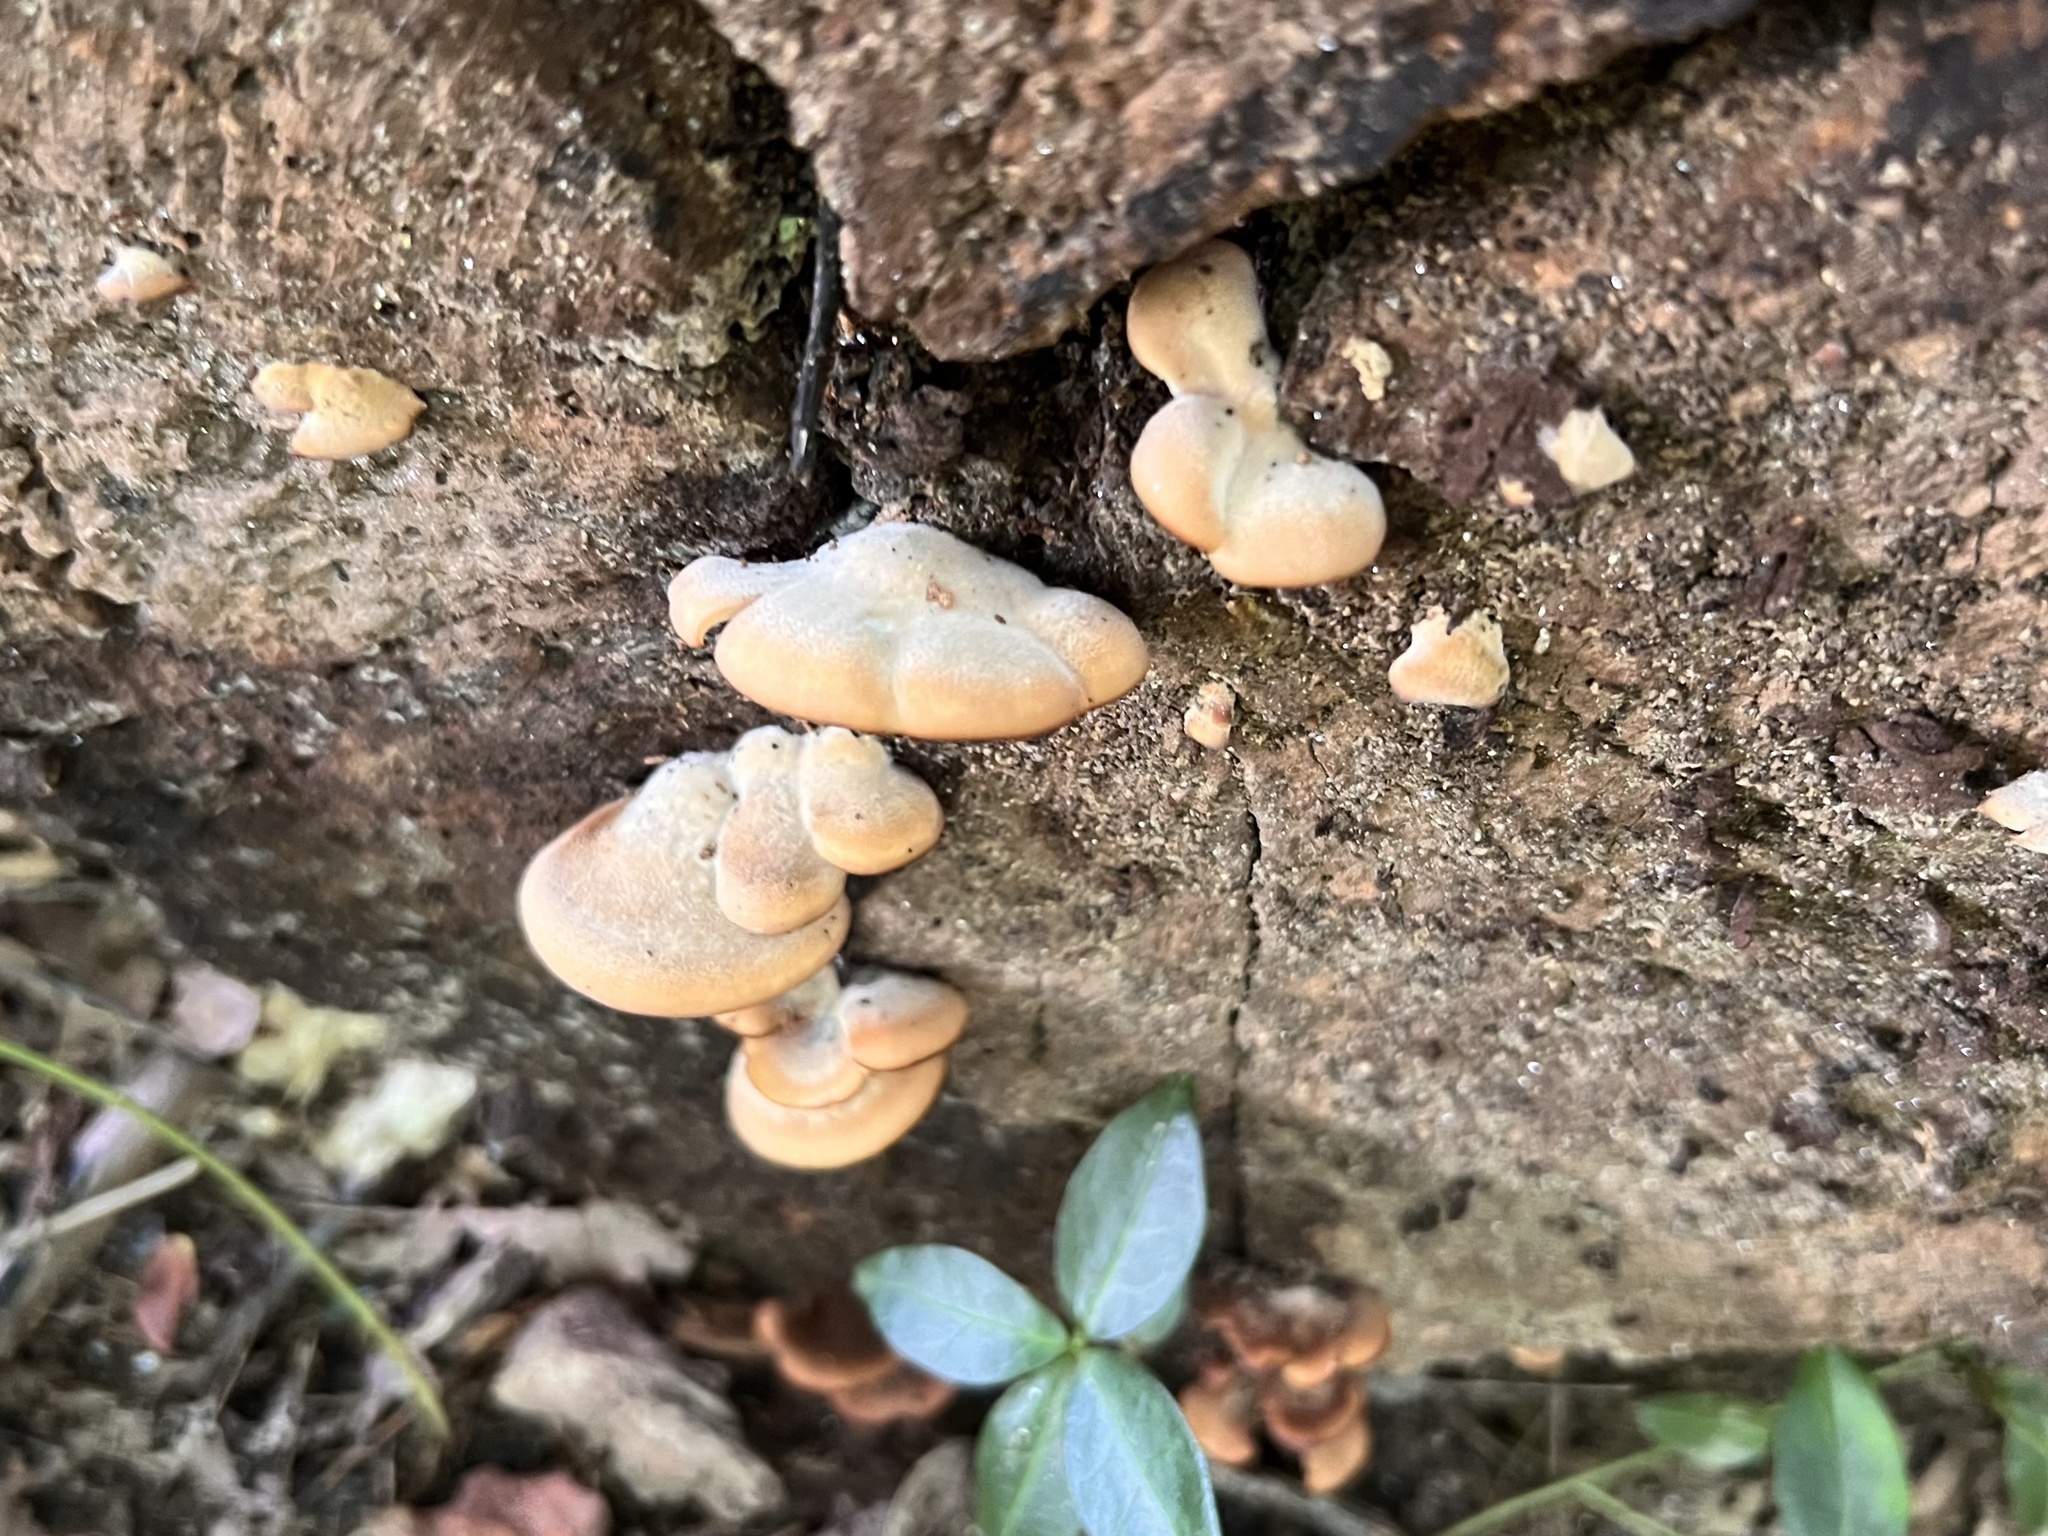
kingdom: Fungi
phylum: Basidiomycota
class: Agaricomycetes
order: Russulales
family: Auriscalpiaceae
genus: Lentinellus
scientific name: Lentinellus ursinus
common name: Bear lentinus
